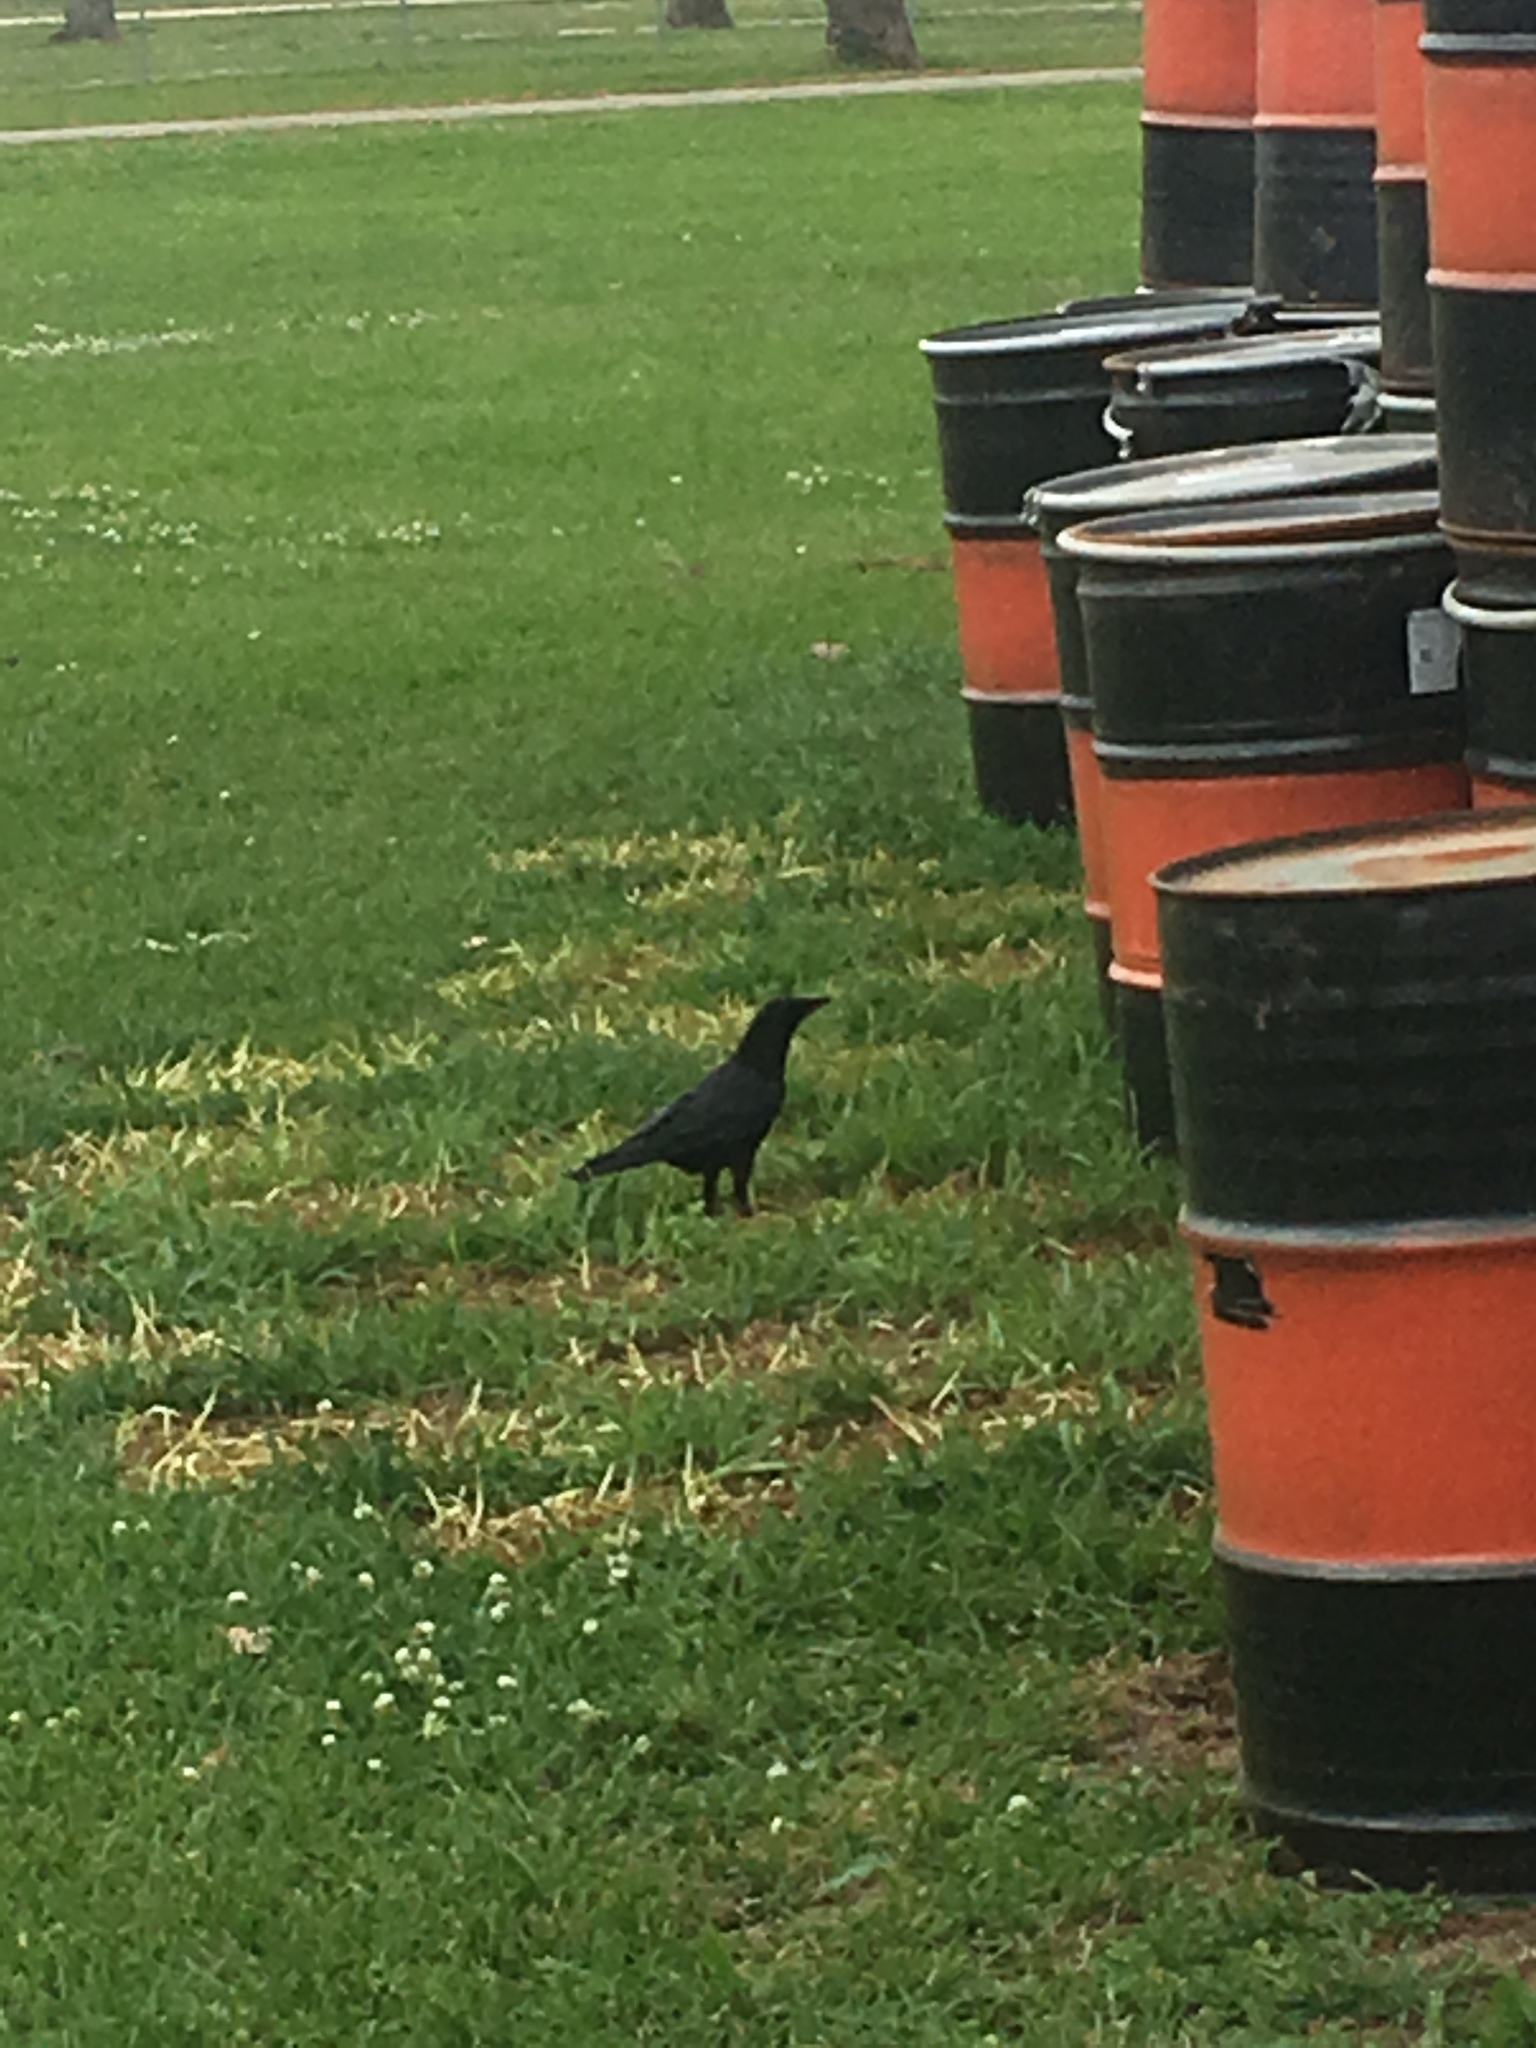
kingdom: Animalia
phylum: Chordata
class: Aves
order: Passeriformes
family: Corvidae
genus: Corvus
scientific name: Corvus brachyrhynchos
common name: American crow
